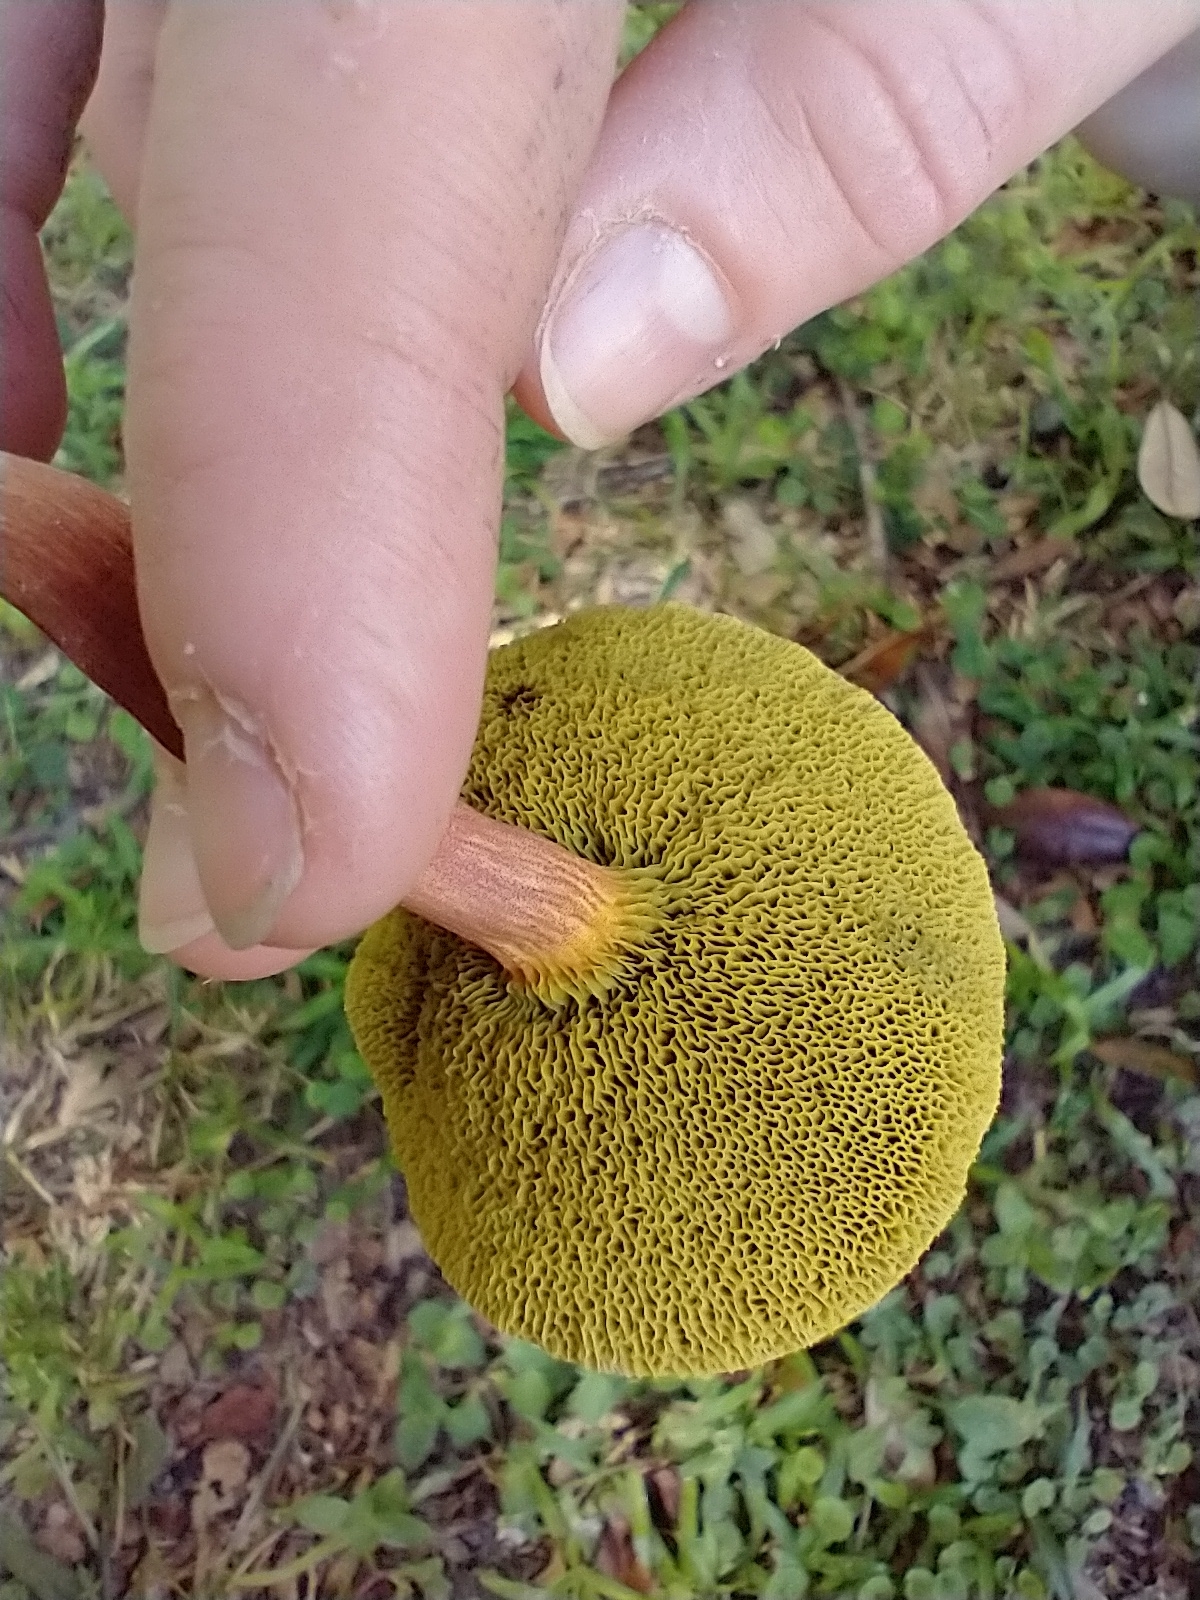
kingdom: Fungi
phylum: Basidiomycota
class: Agaricomycetes
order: Boletales
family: Boletaceae
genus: Hortiboletus
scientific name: Hortiboletus rubellus
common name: Ruby bolete
